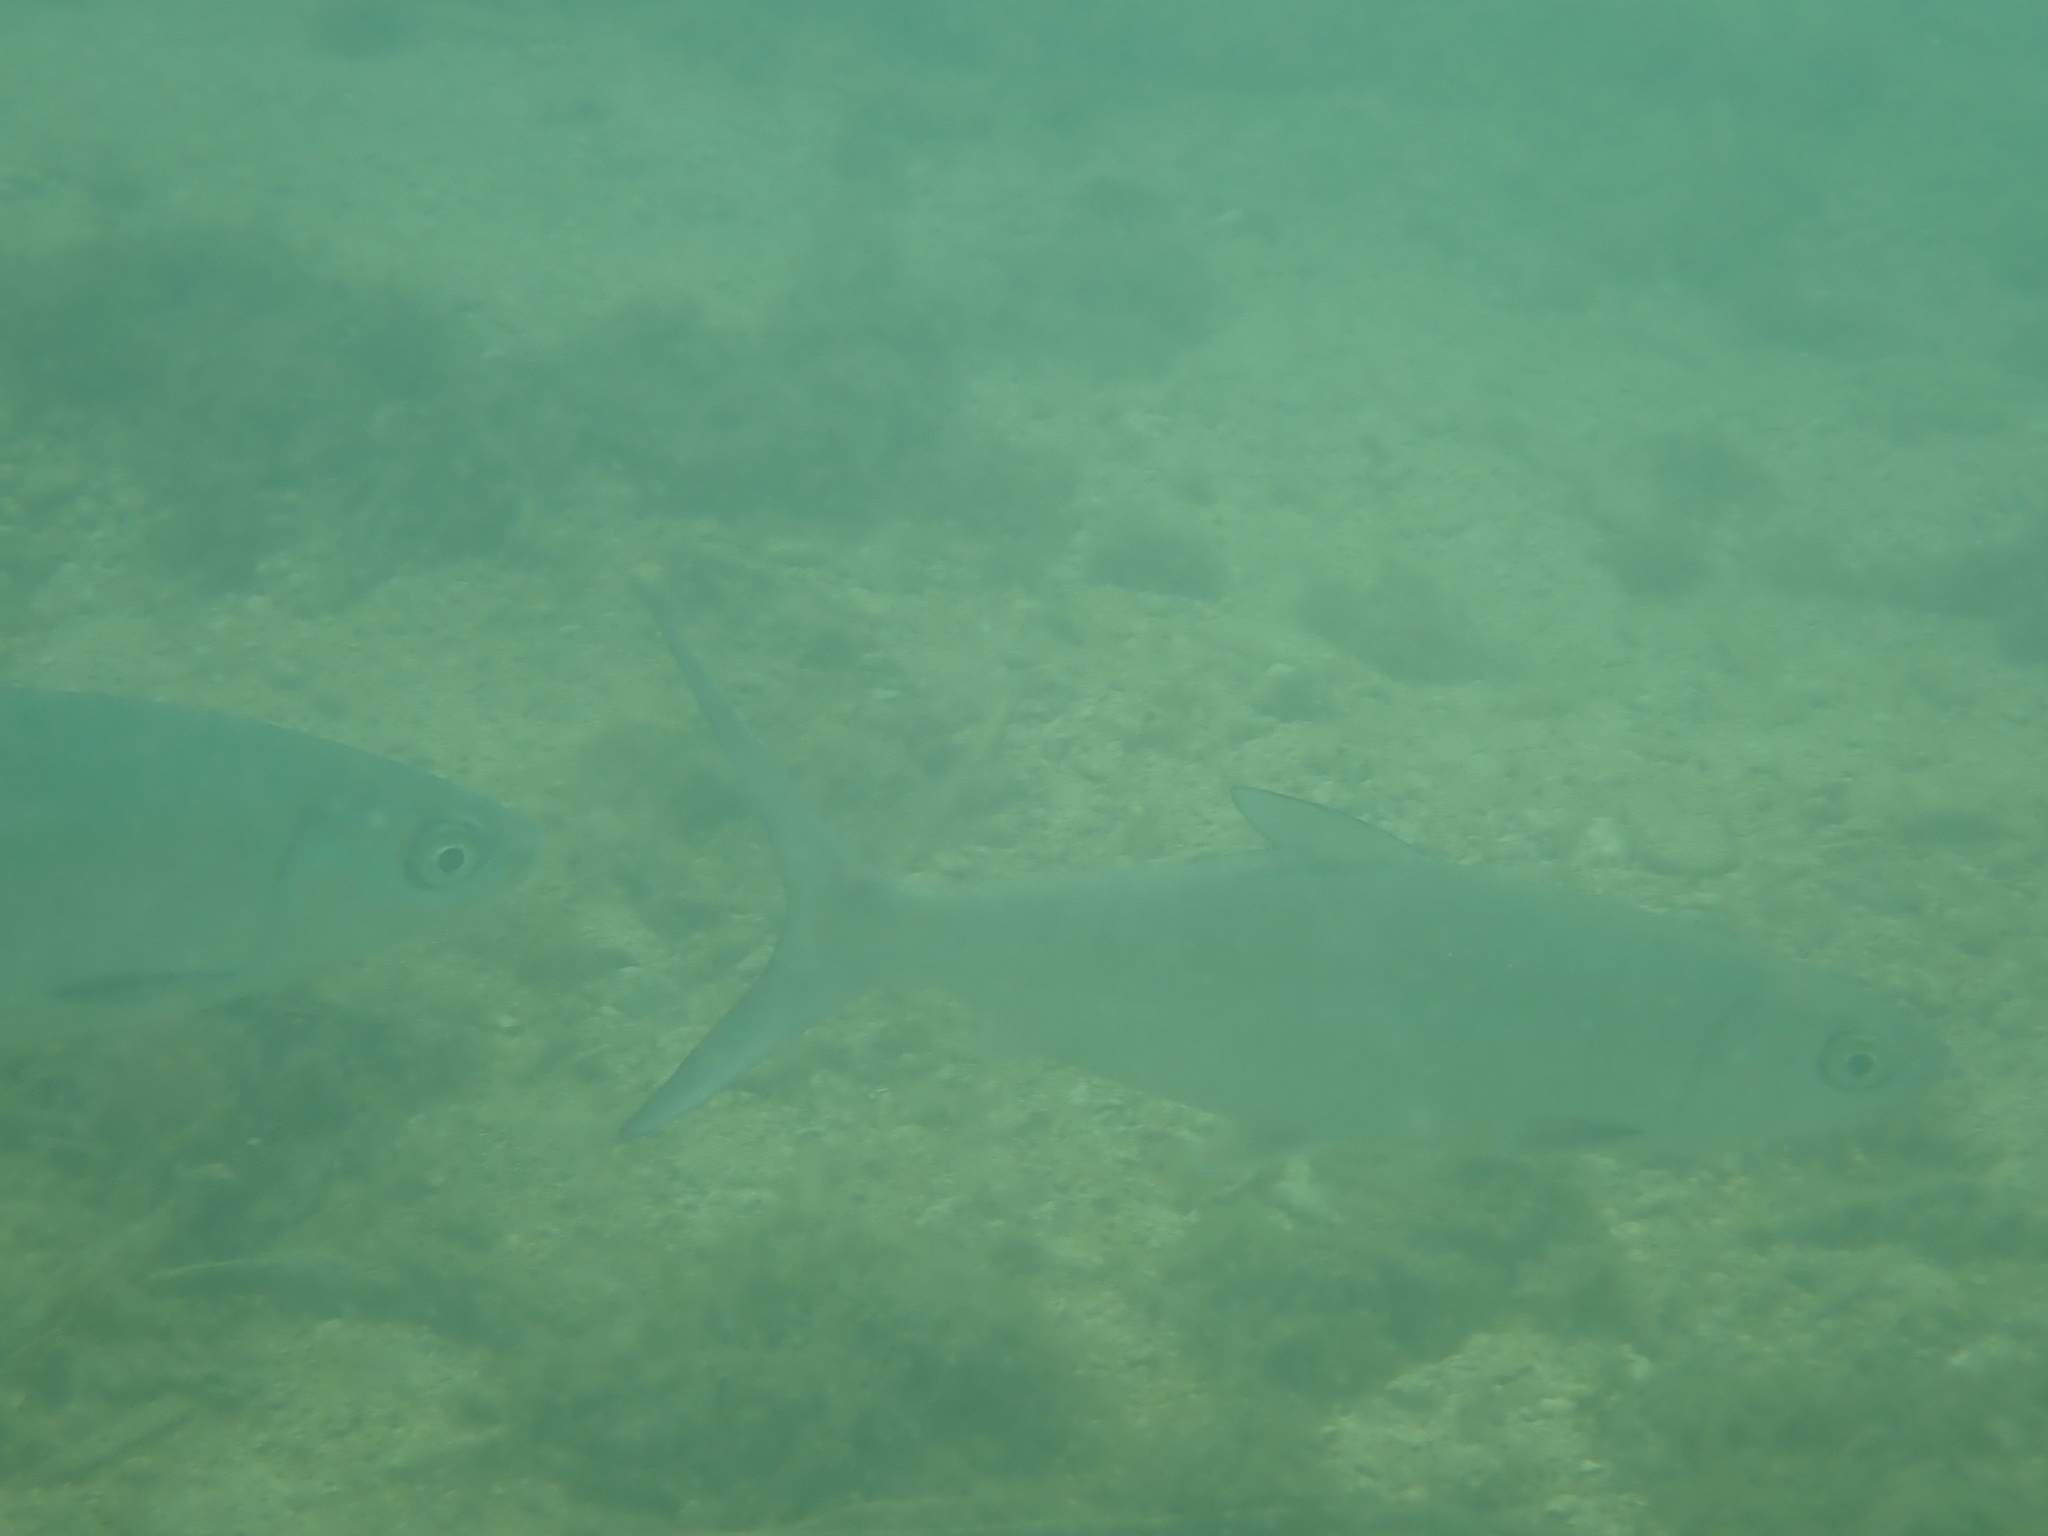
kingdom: Animalia
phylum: Chordata
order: Gonorynchiformes
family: Chanidae
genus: Chanos
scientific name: Chanos chanos
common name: Milkfish
